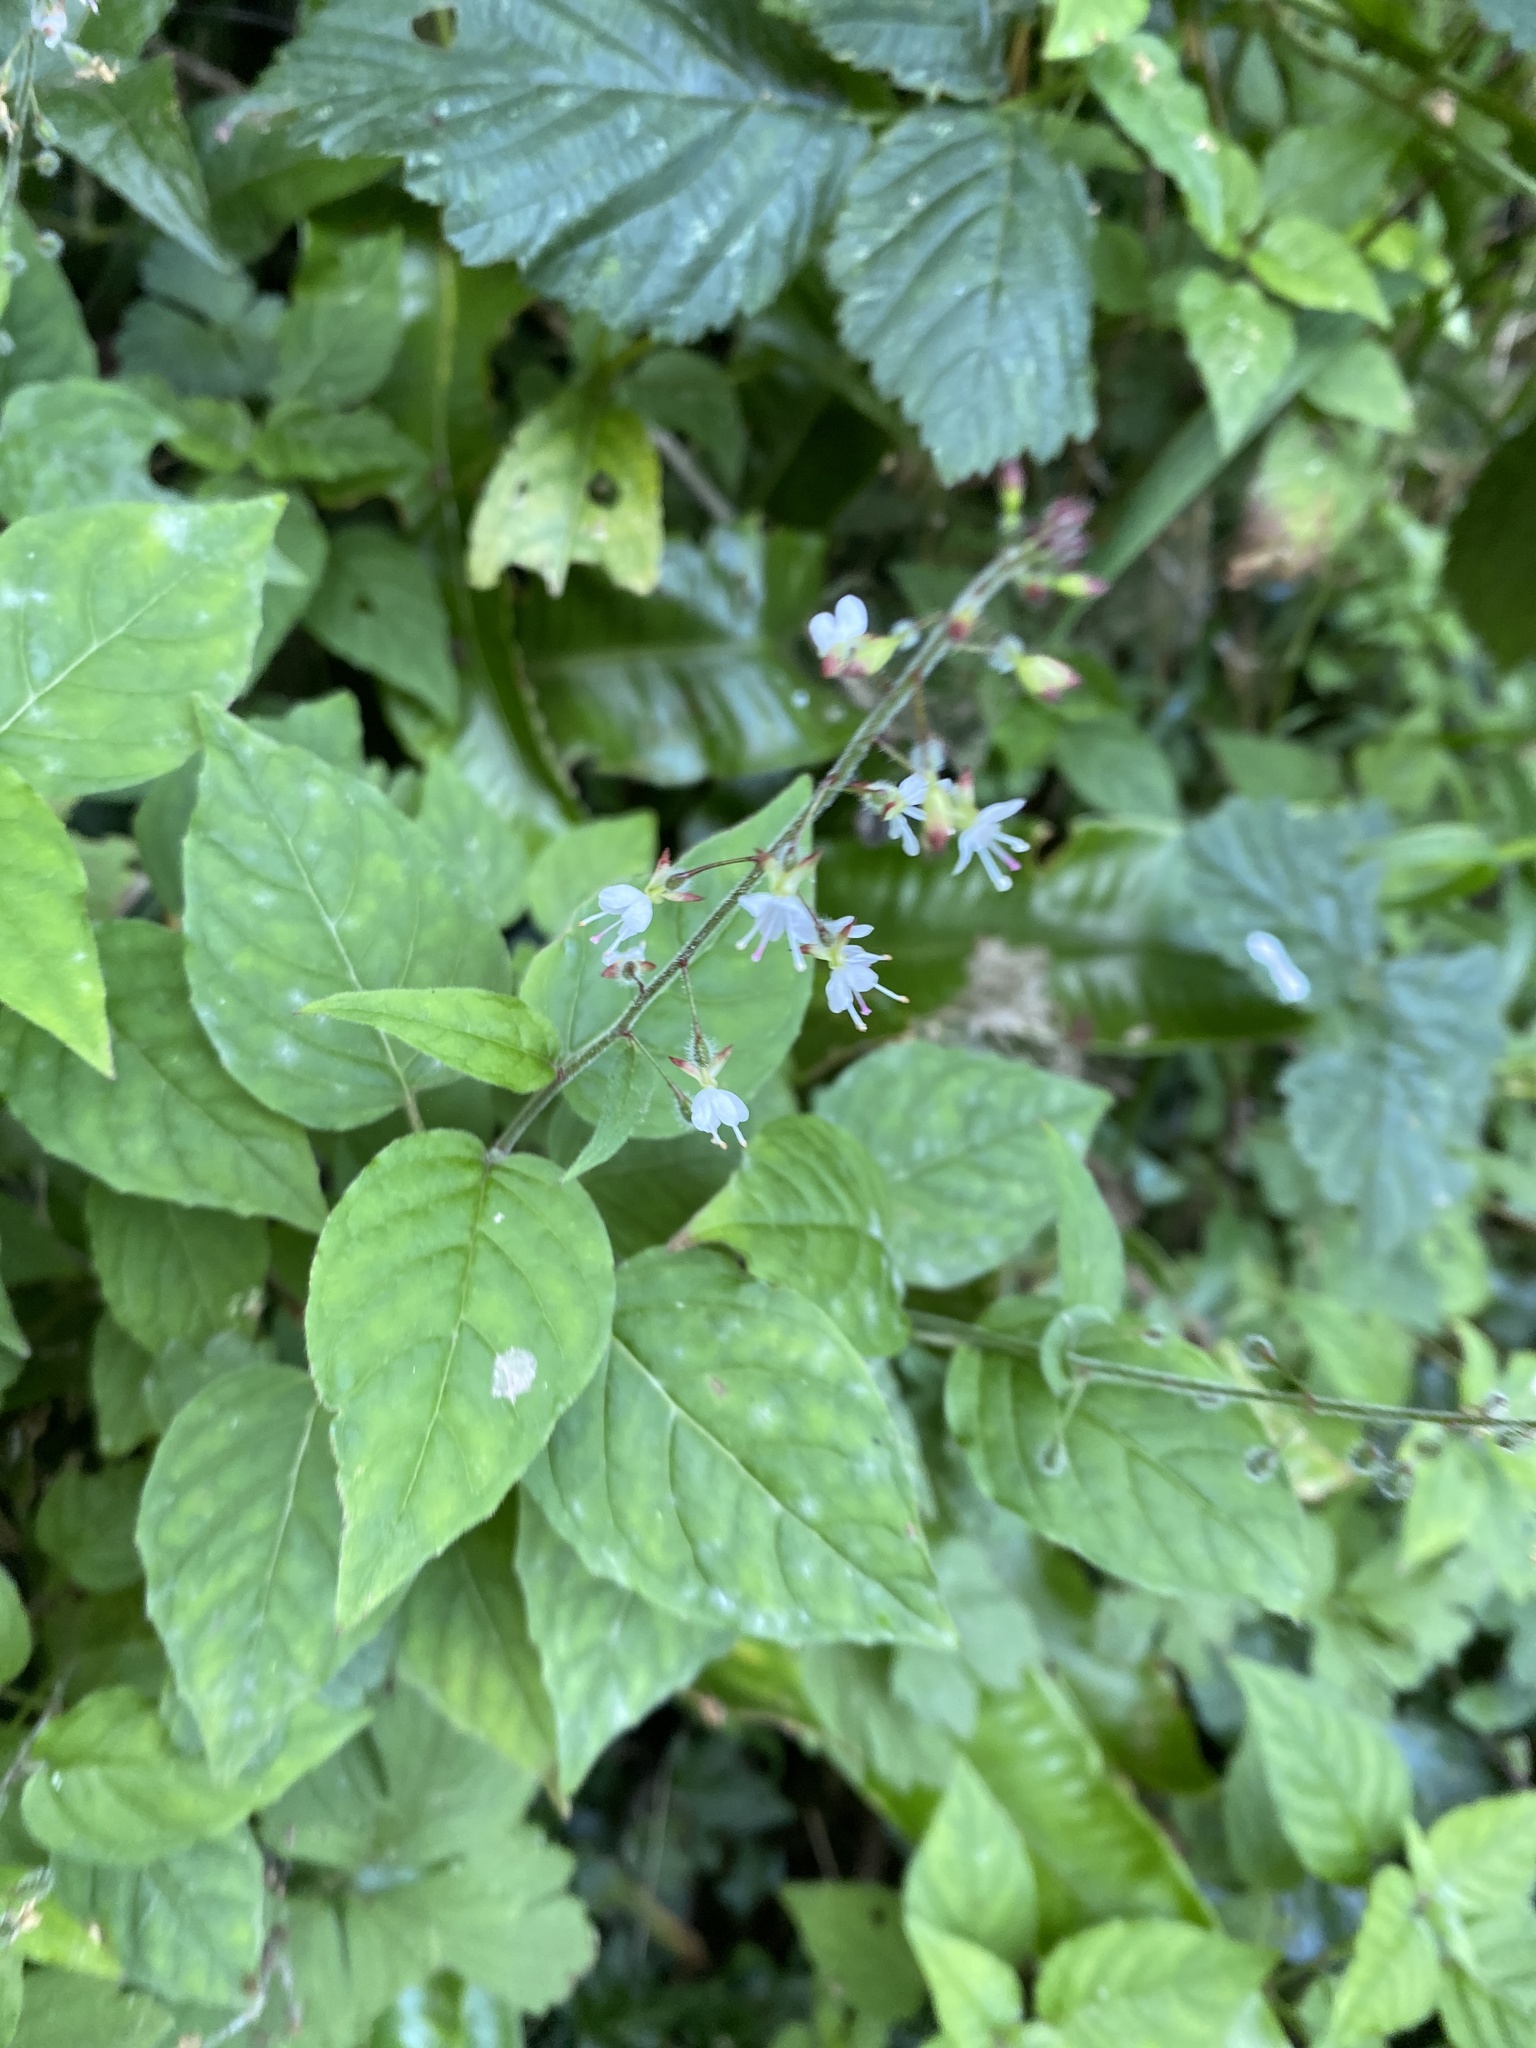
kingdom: Plantae
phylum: Tracheophyta
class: Magnoliopsida
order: Myrtales
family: Onagraceae
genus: Circaea
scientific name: Circaea lutetiana
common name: Enchanter's-nightshade
